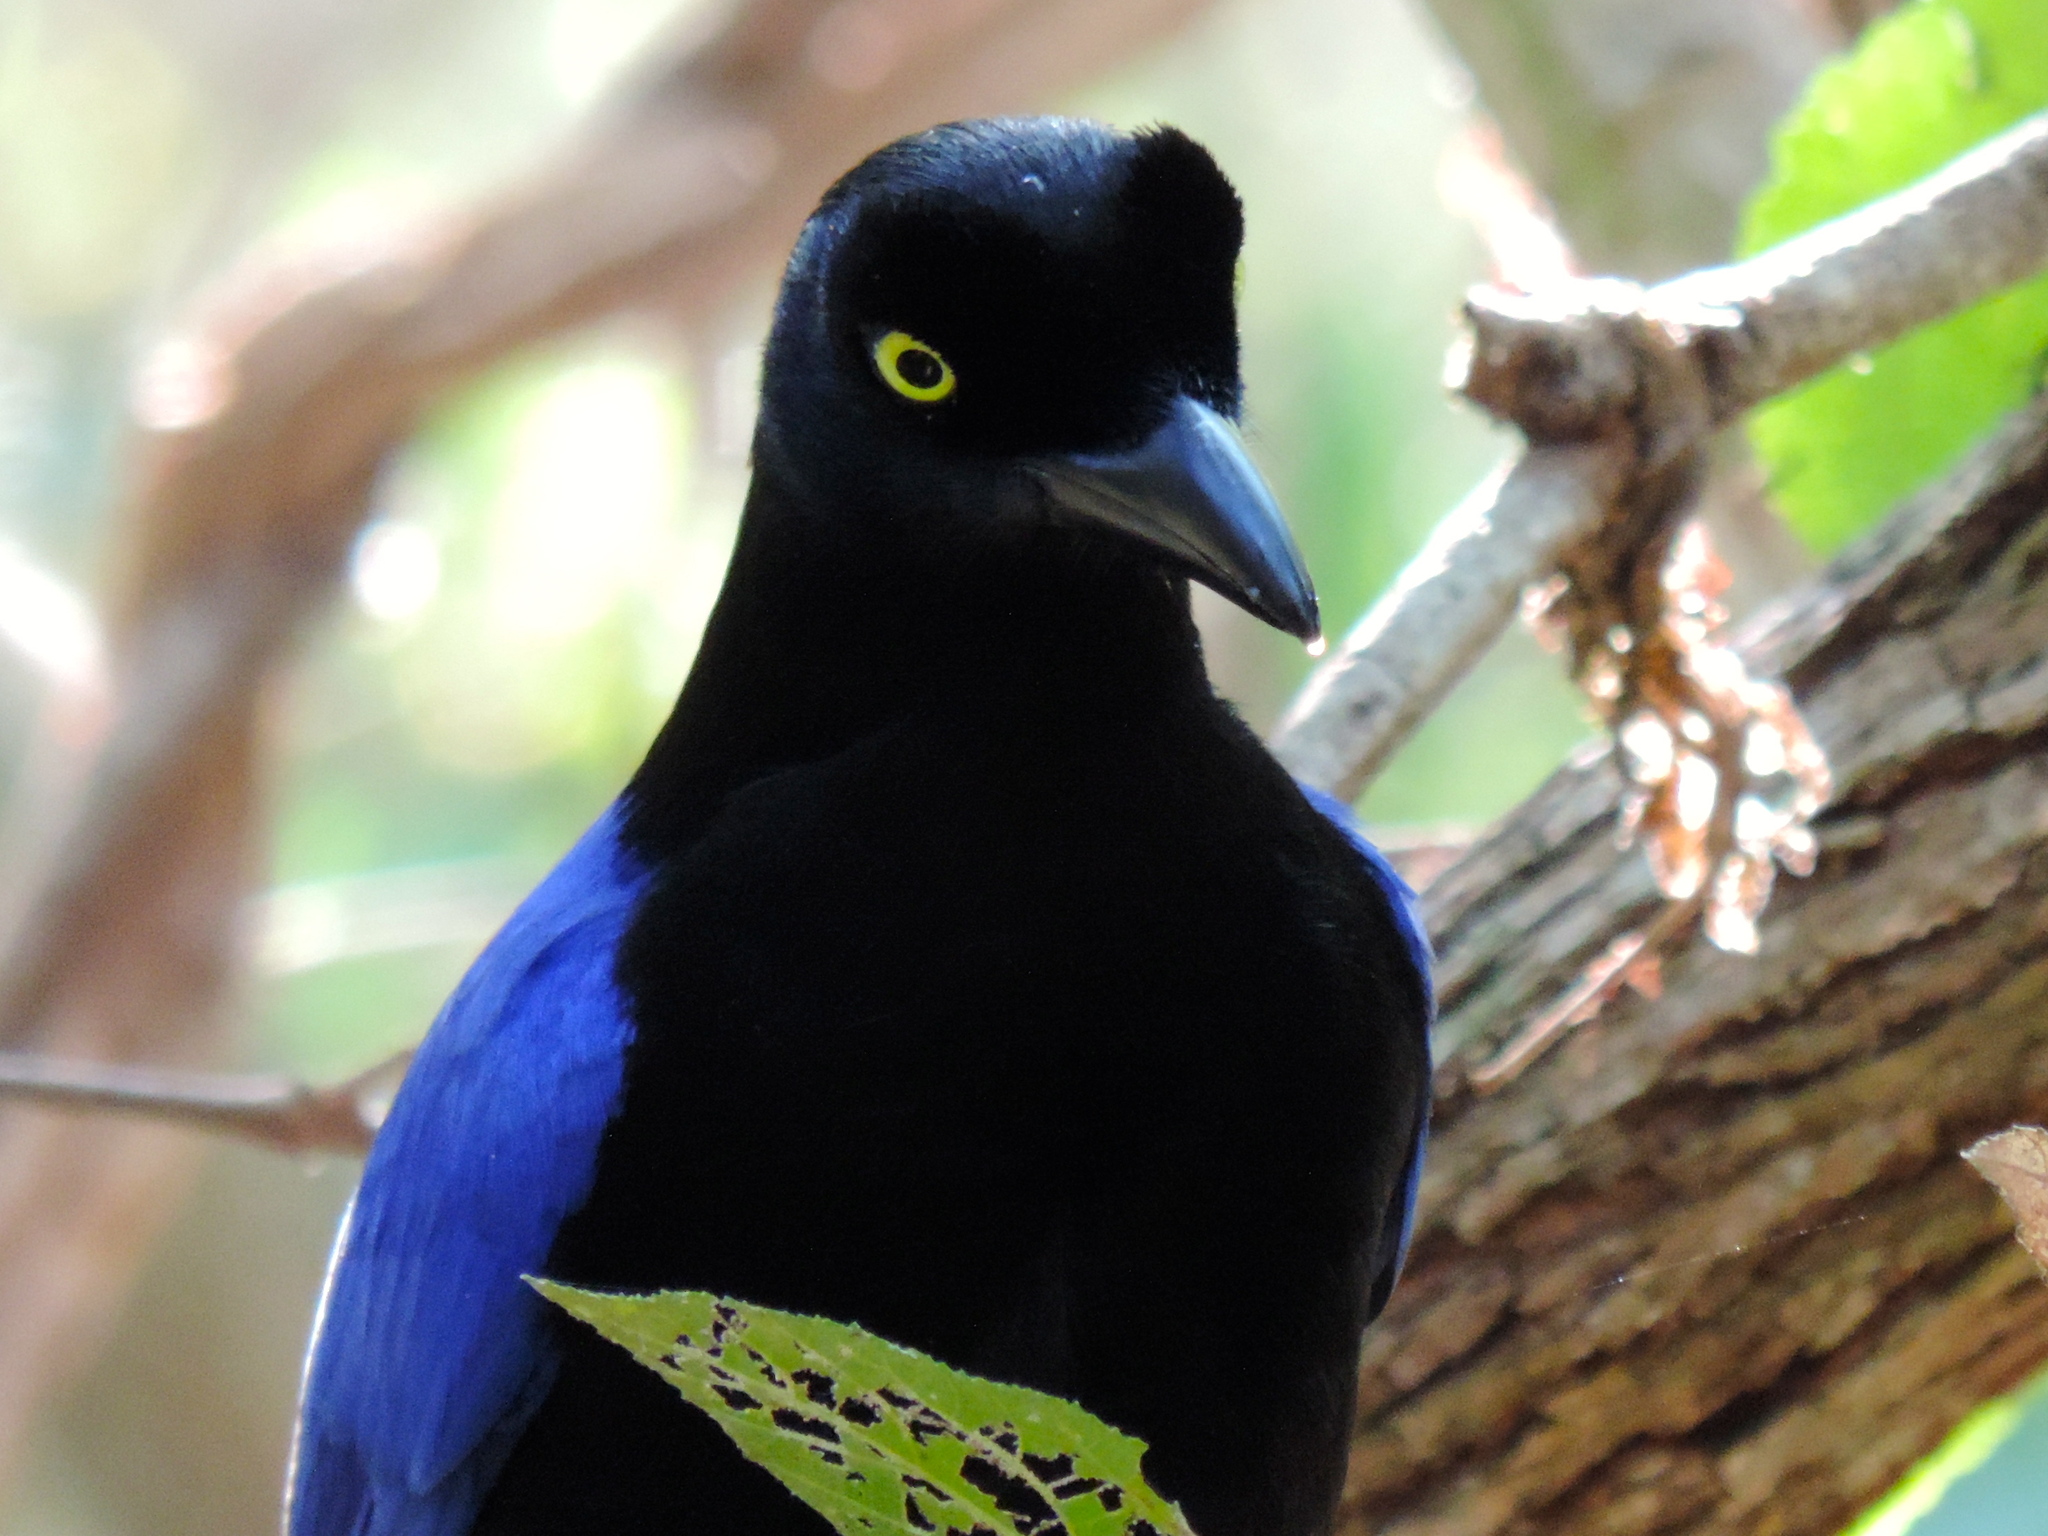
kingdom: Animalia
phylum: Chordata
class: Aves
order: Passeriformes
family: Corvidae
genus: Cyanocorax
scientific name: Cyanocorax beecheii
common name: Purplish-backed jay
